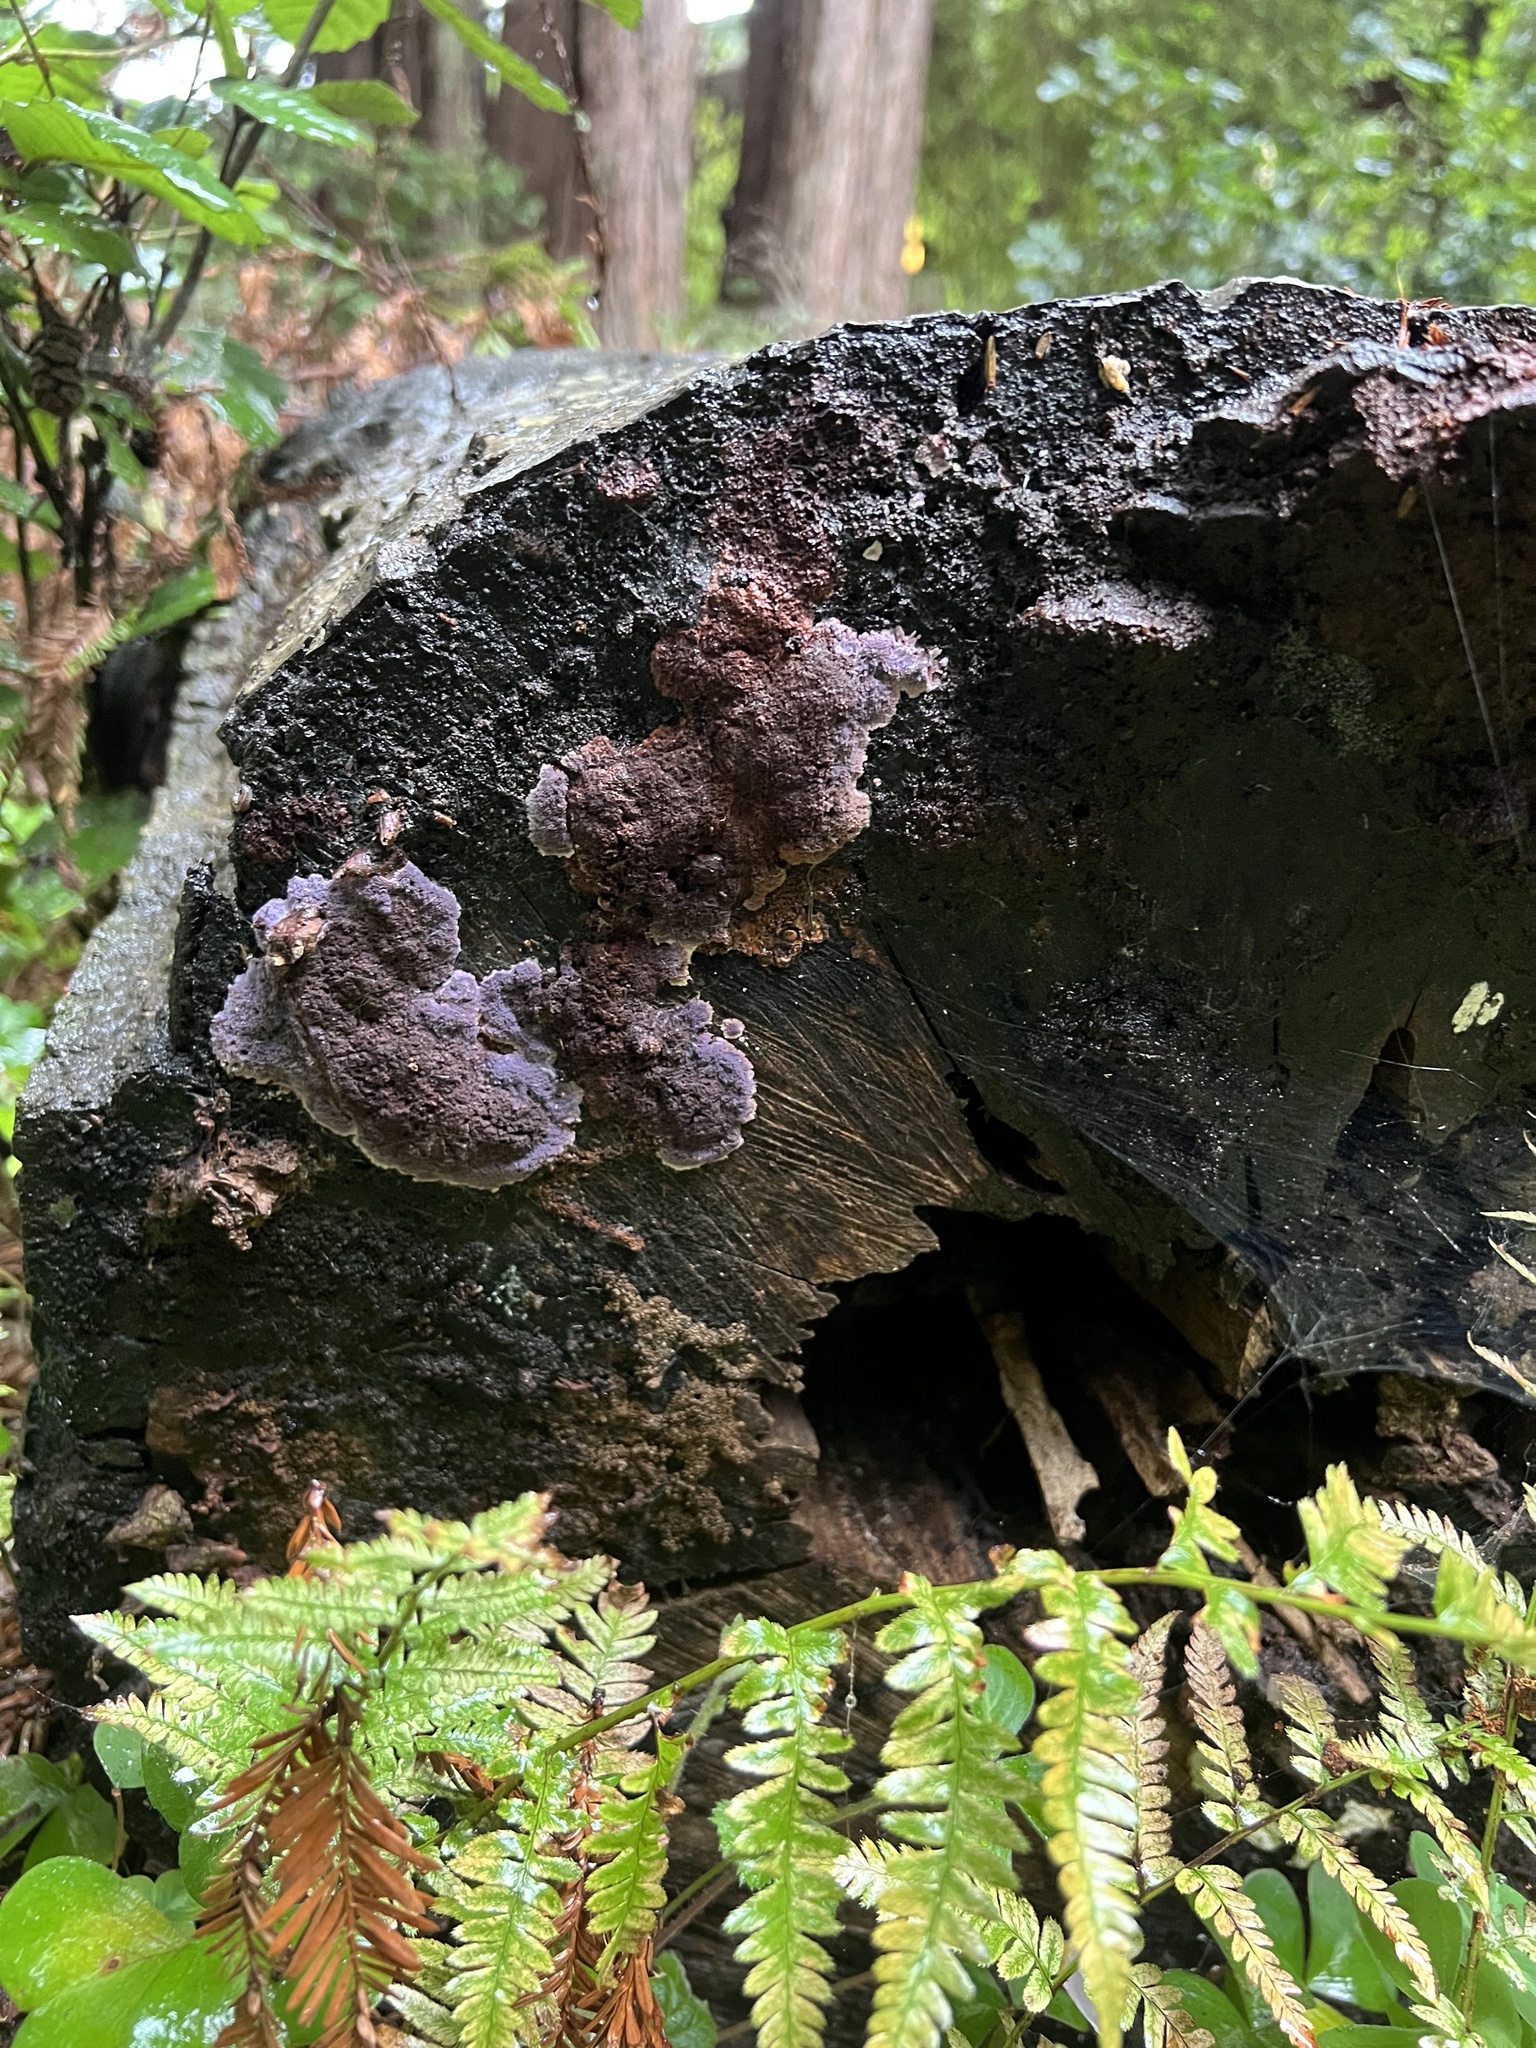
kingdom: Fungi
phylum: Basidiomycota
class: Agaricomycetes
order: Corticiales
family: Punctulariaceae
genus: Punctularia
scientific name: Punctularia atropurpurascens
